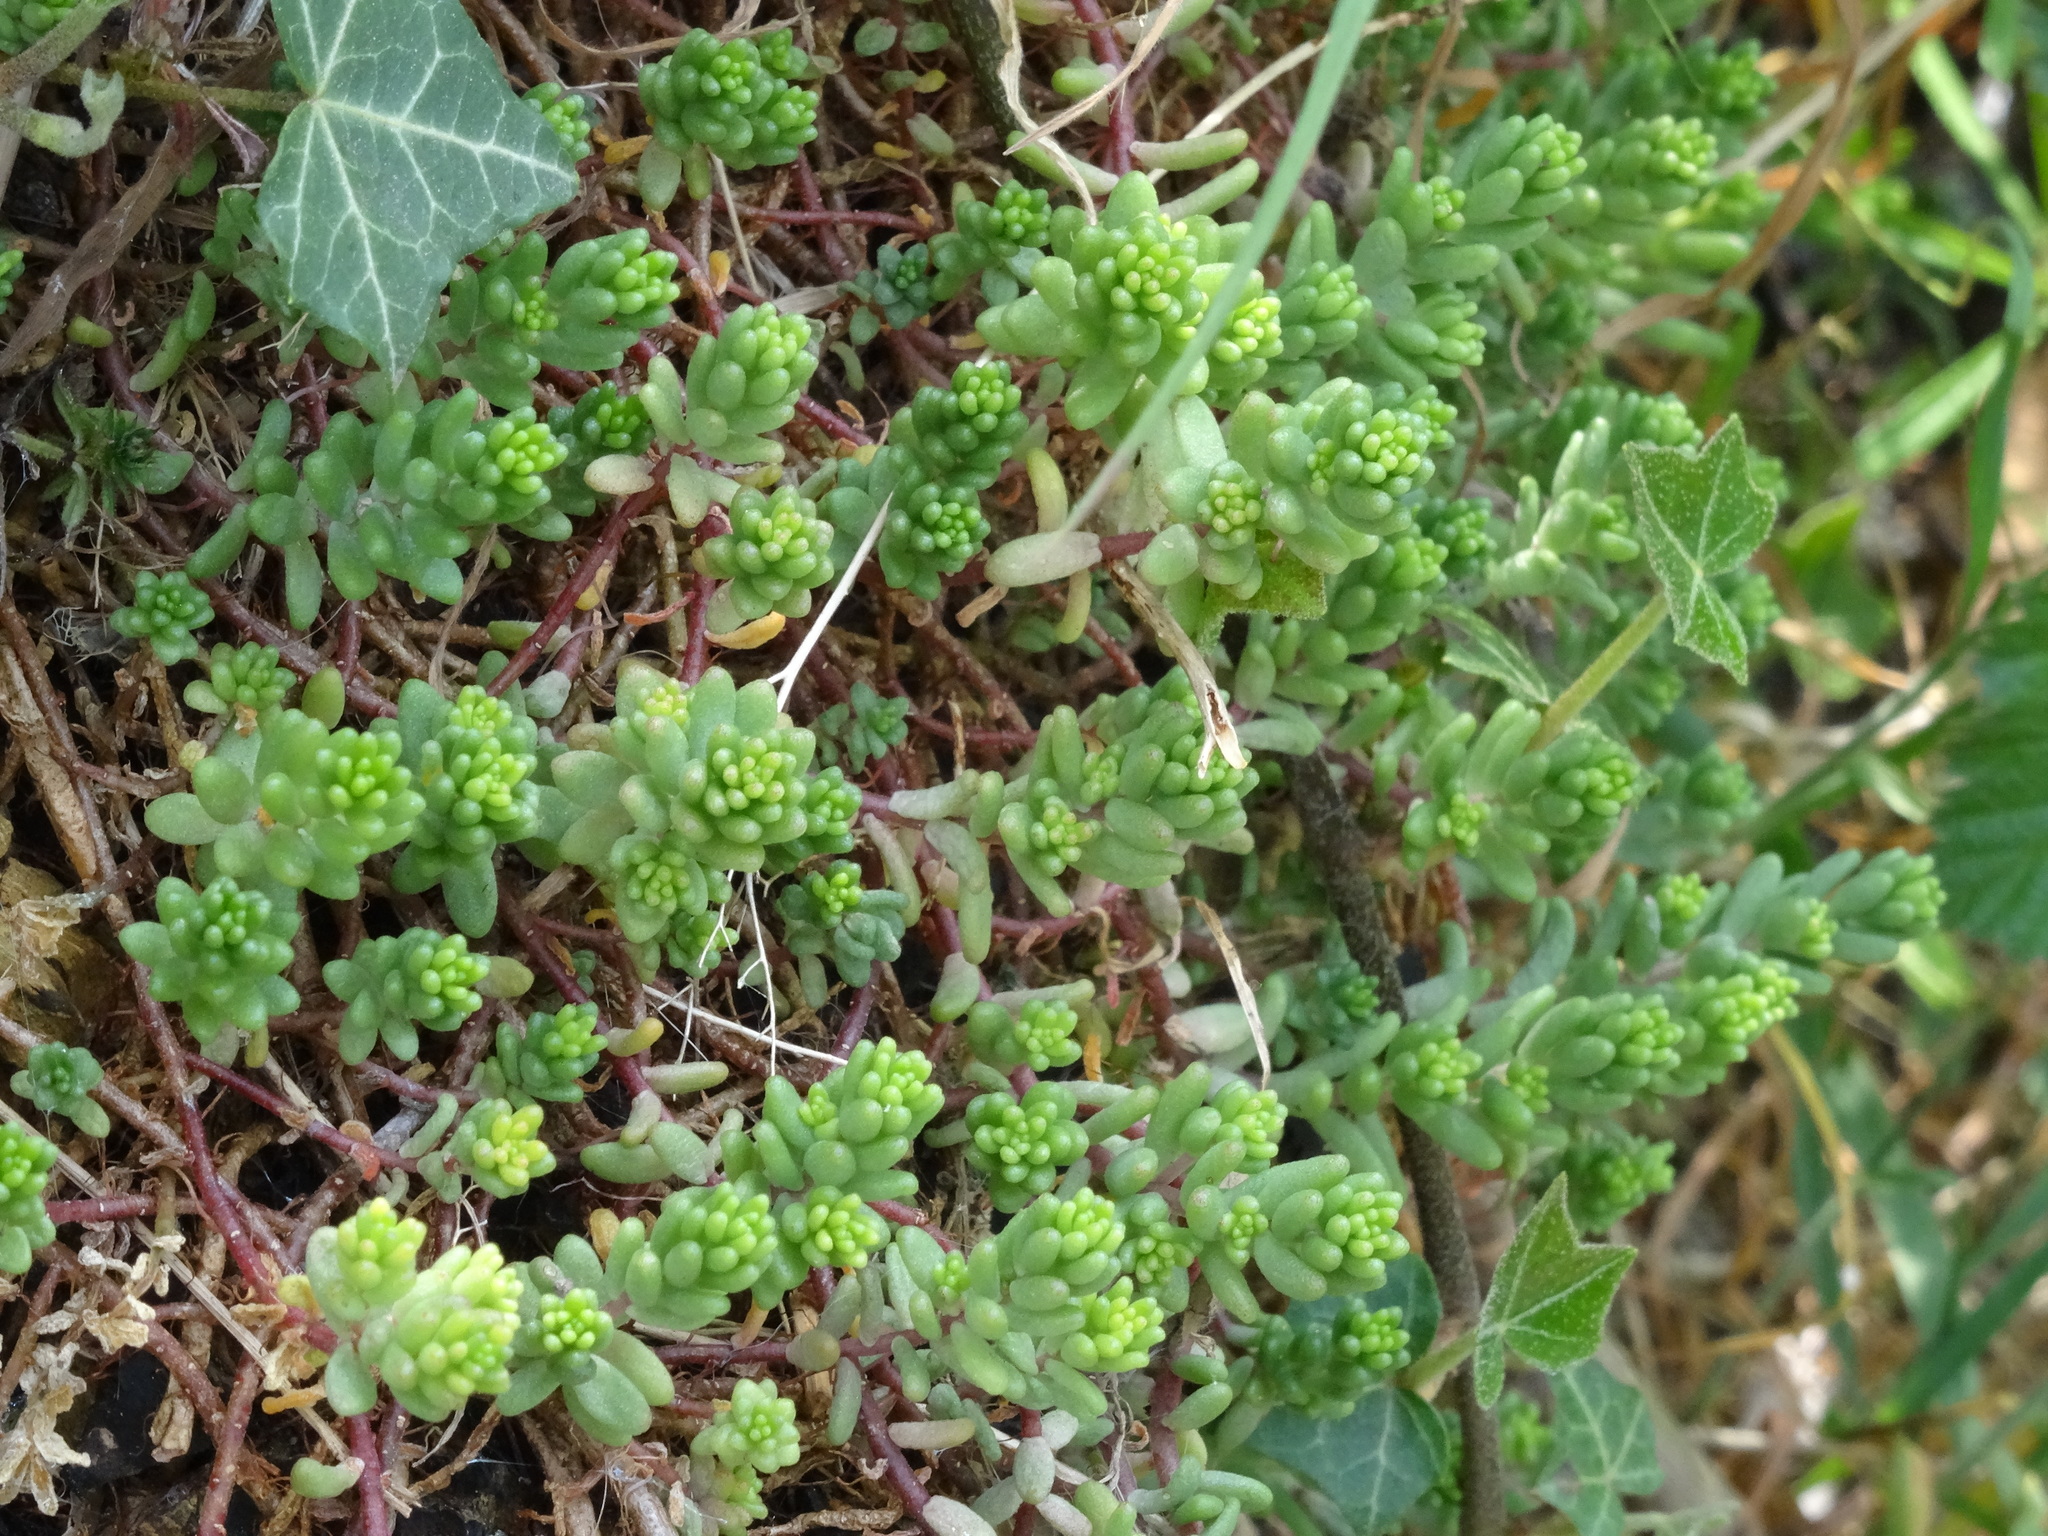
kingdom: Plantae
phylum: Tracheophyta
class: Magnoliopsida
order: Saxifragales
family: Crassulaceae
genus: Sedum
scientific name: Sedum album
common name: White stonecrop
